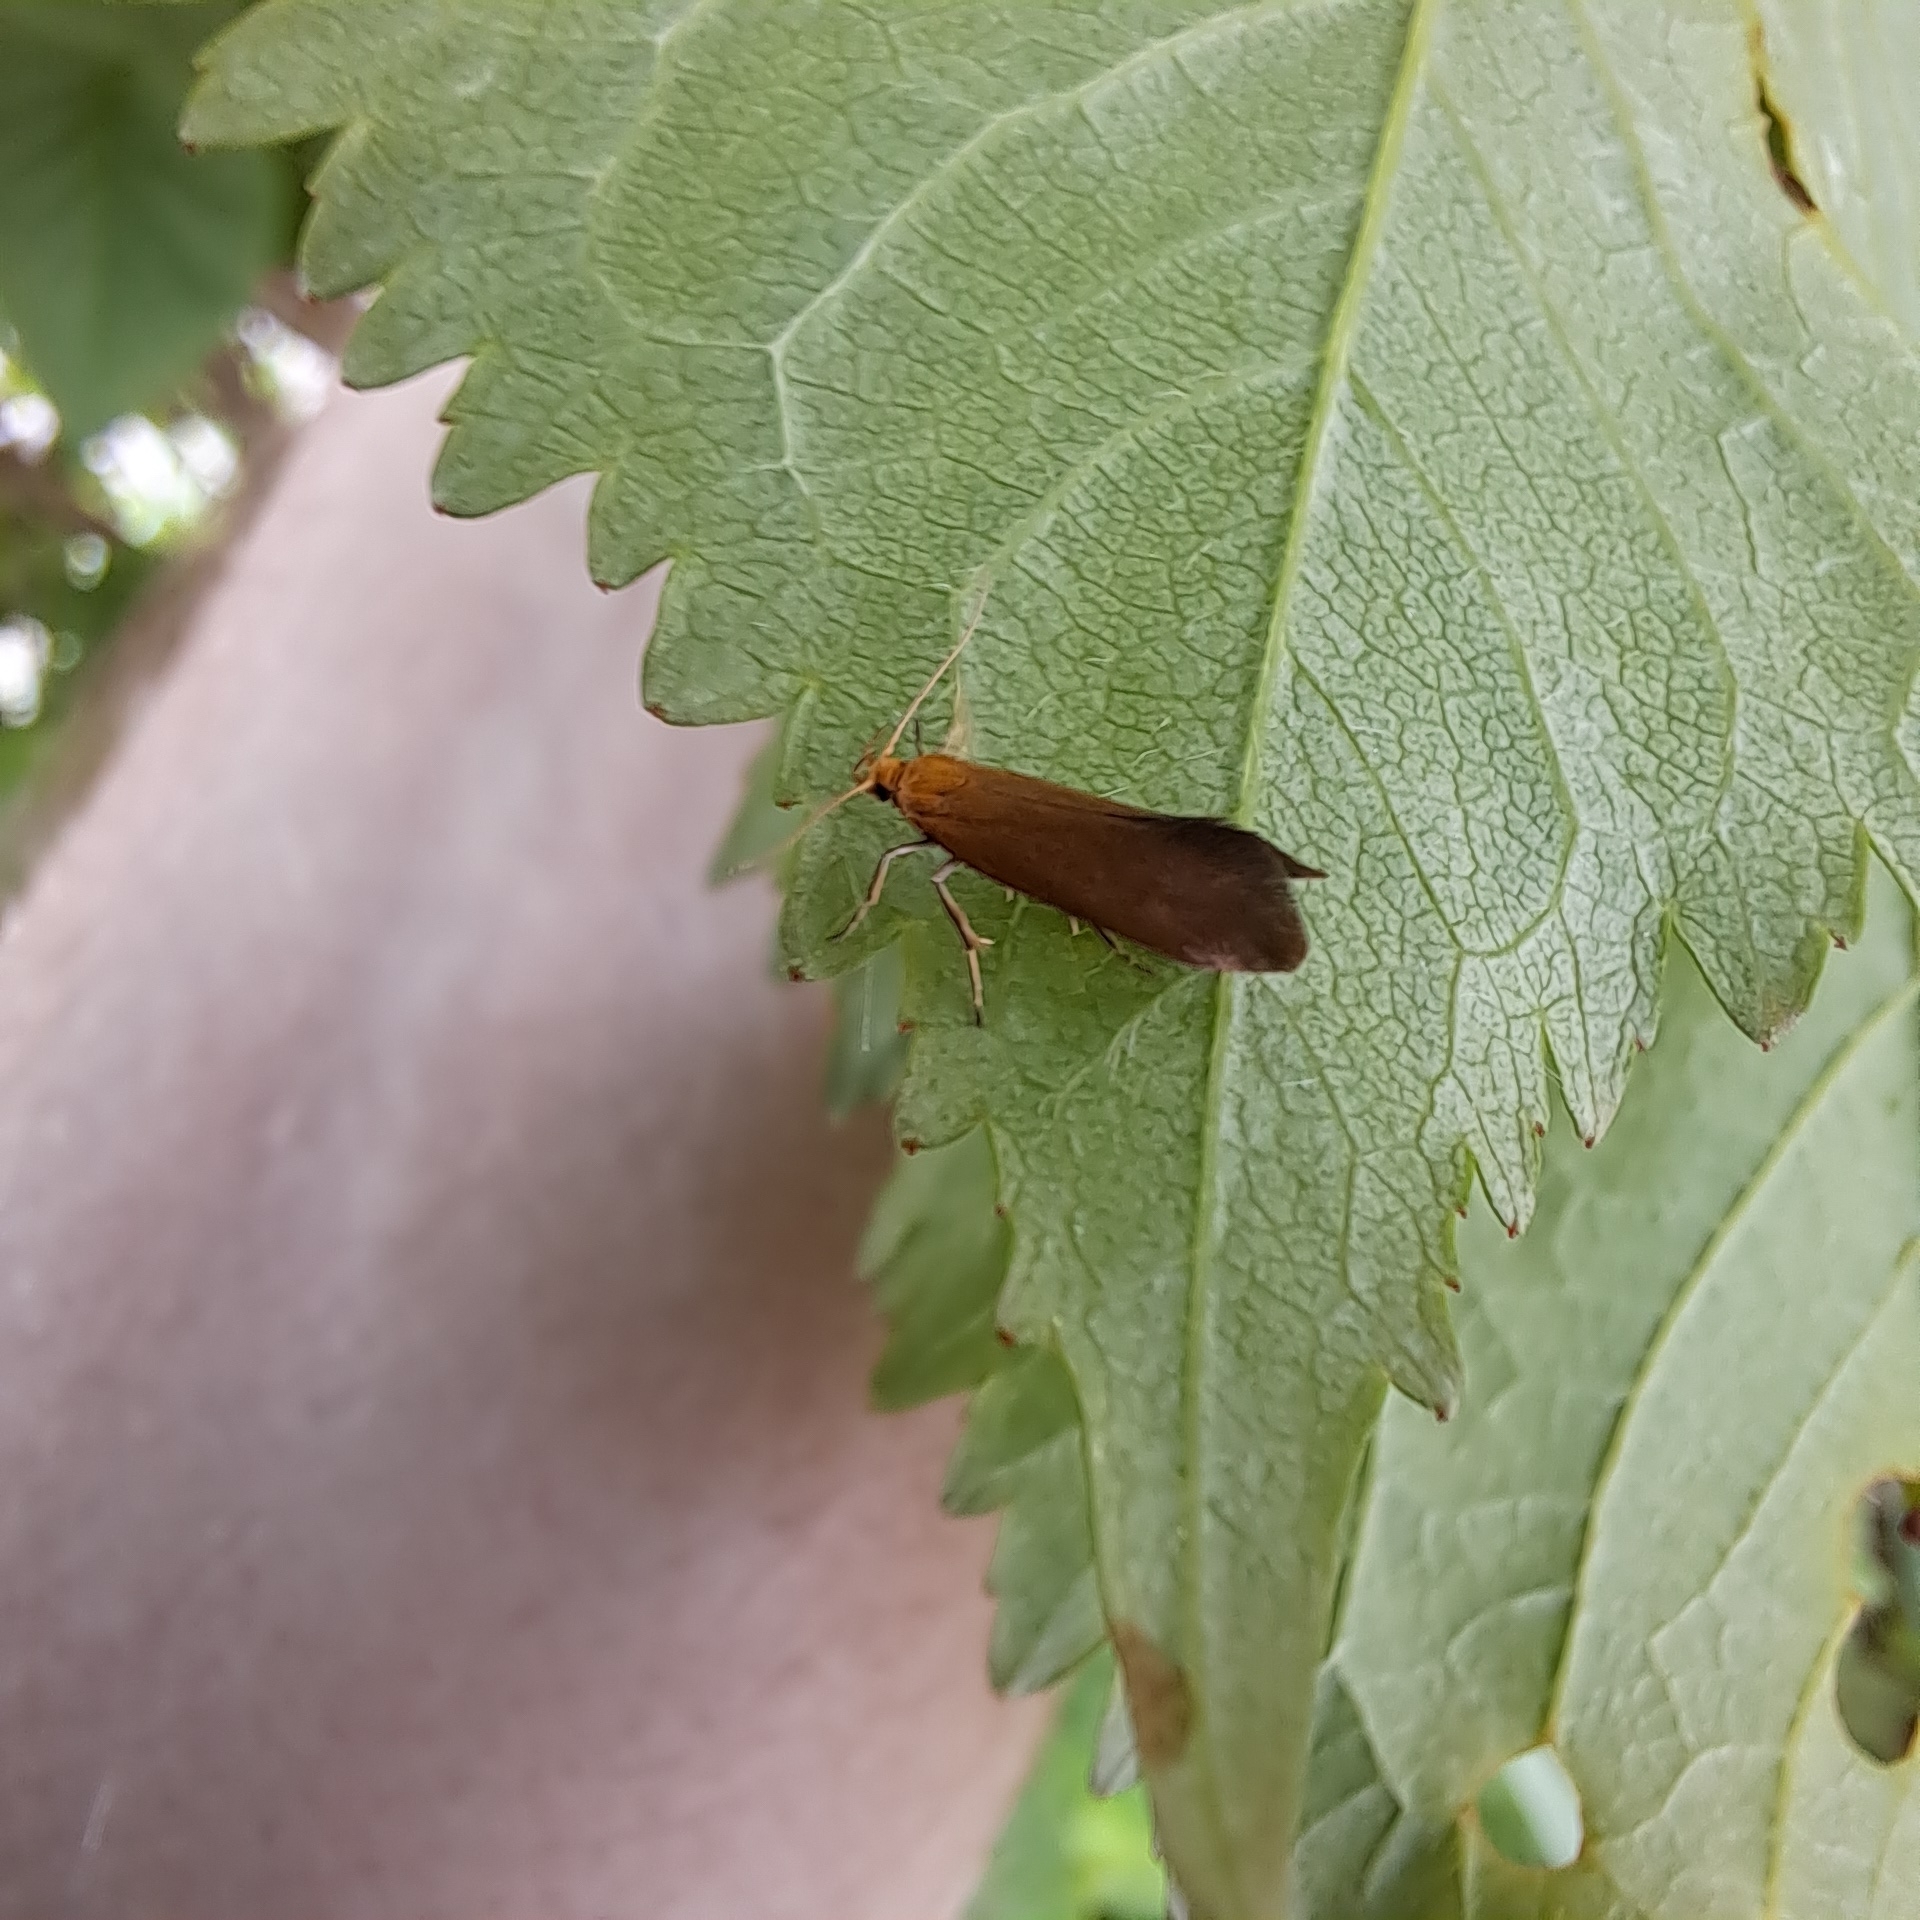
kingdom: Animalia
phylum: Arthropoda
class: Insecta
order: Lepidoptera
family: Oecophoridae
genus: Borkhausenia
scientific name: Borkhausenia Crassa tinctella
